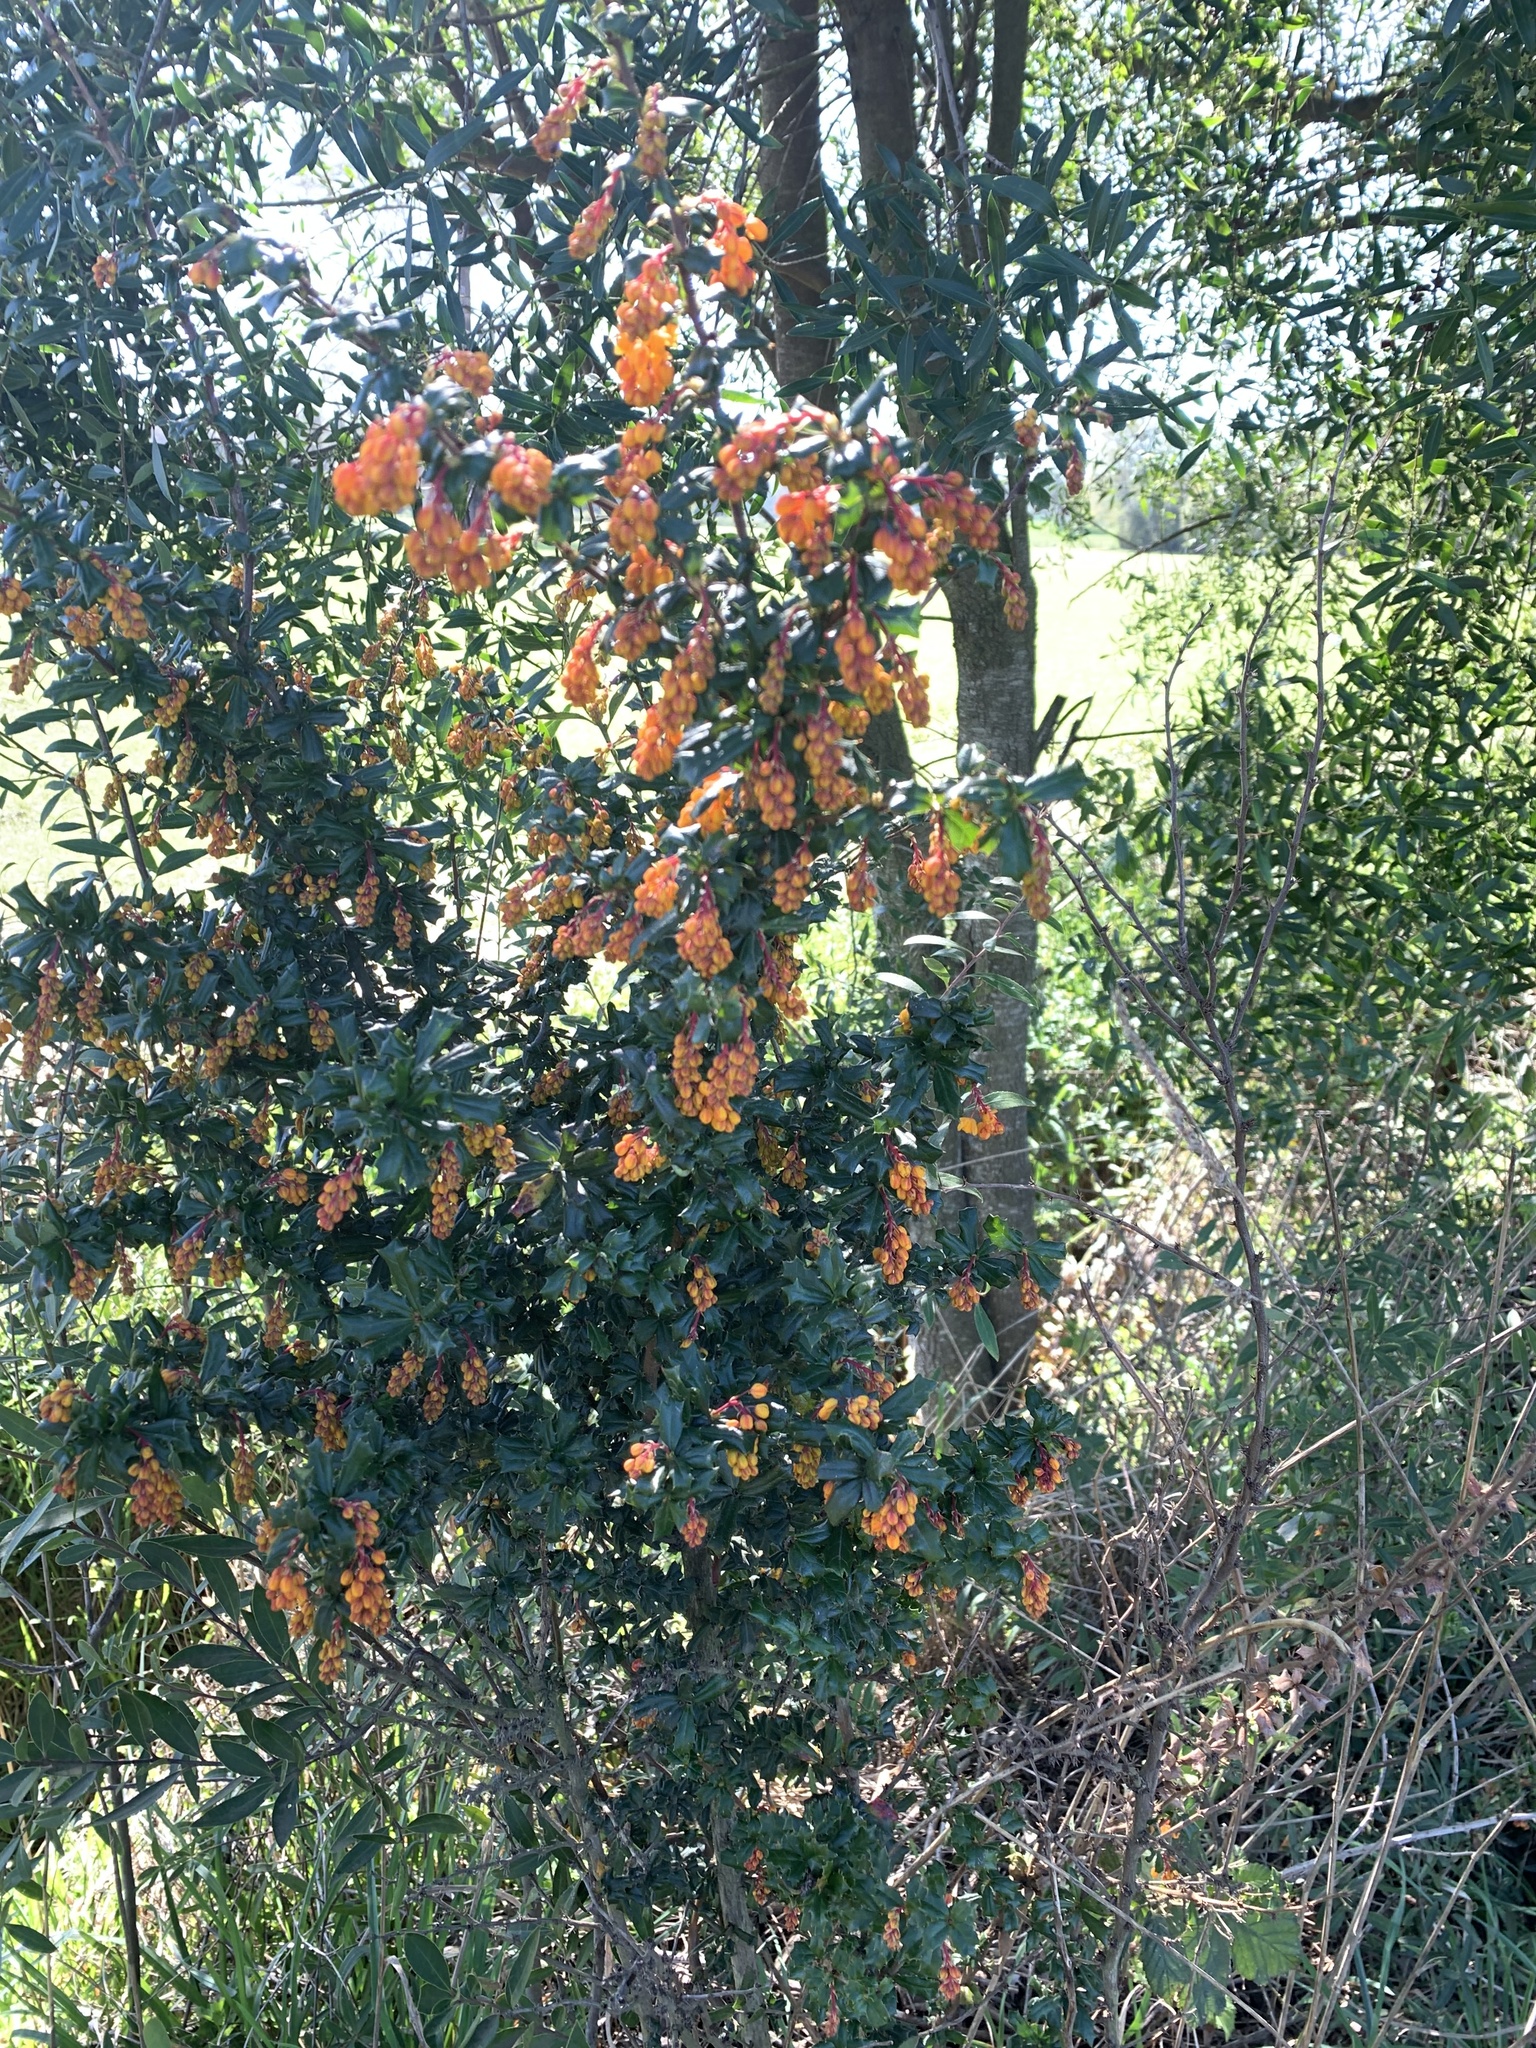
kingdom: Plantae
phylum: Tracheophyta
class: Magnoliopsida
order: Ranunculales
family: Berberidaceae
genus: Berberis
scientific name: Berberis darwinii
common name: Darwin's barberry
